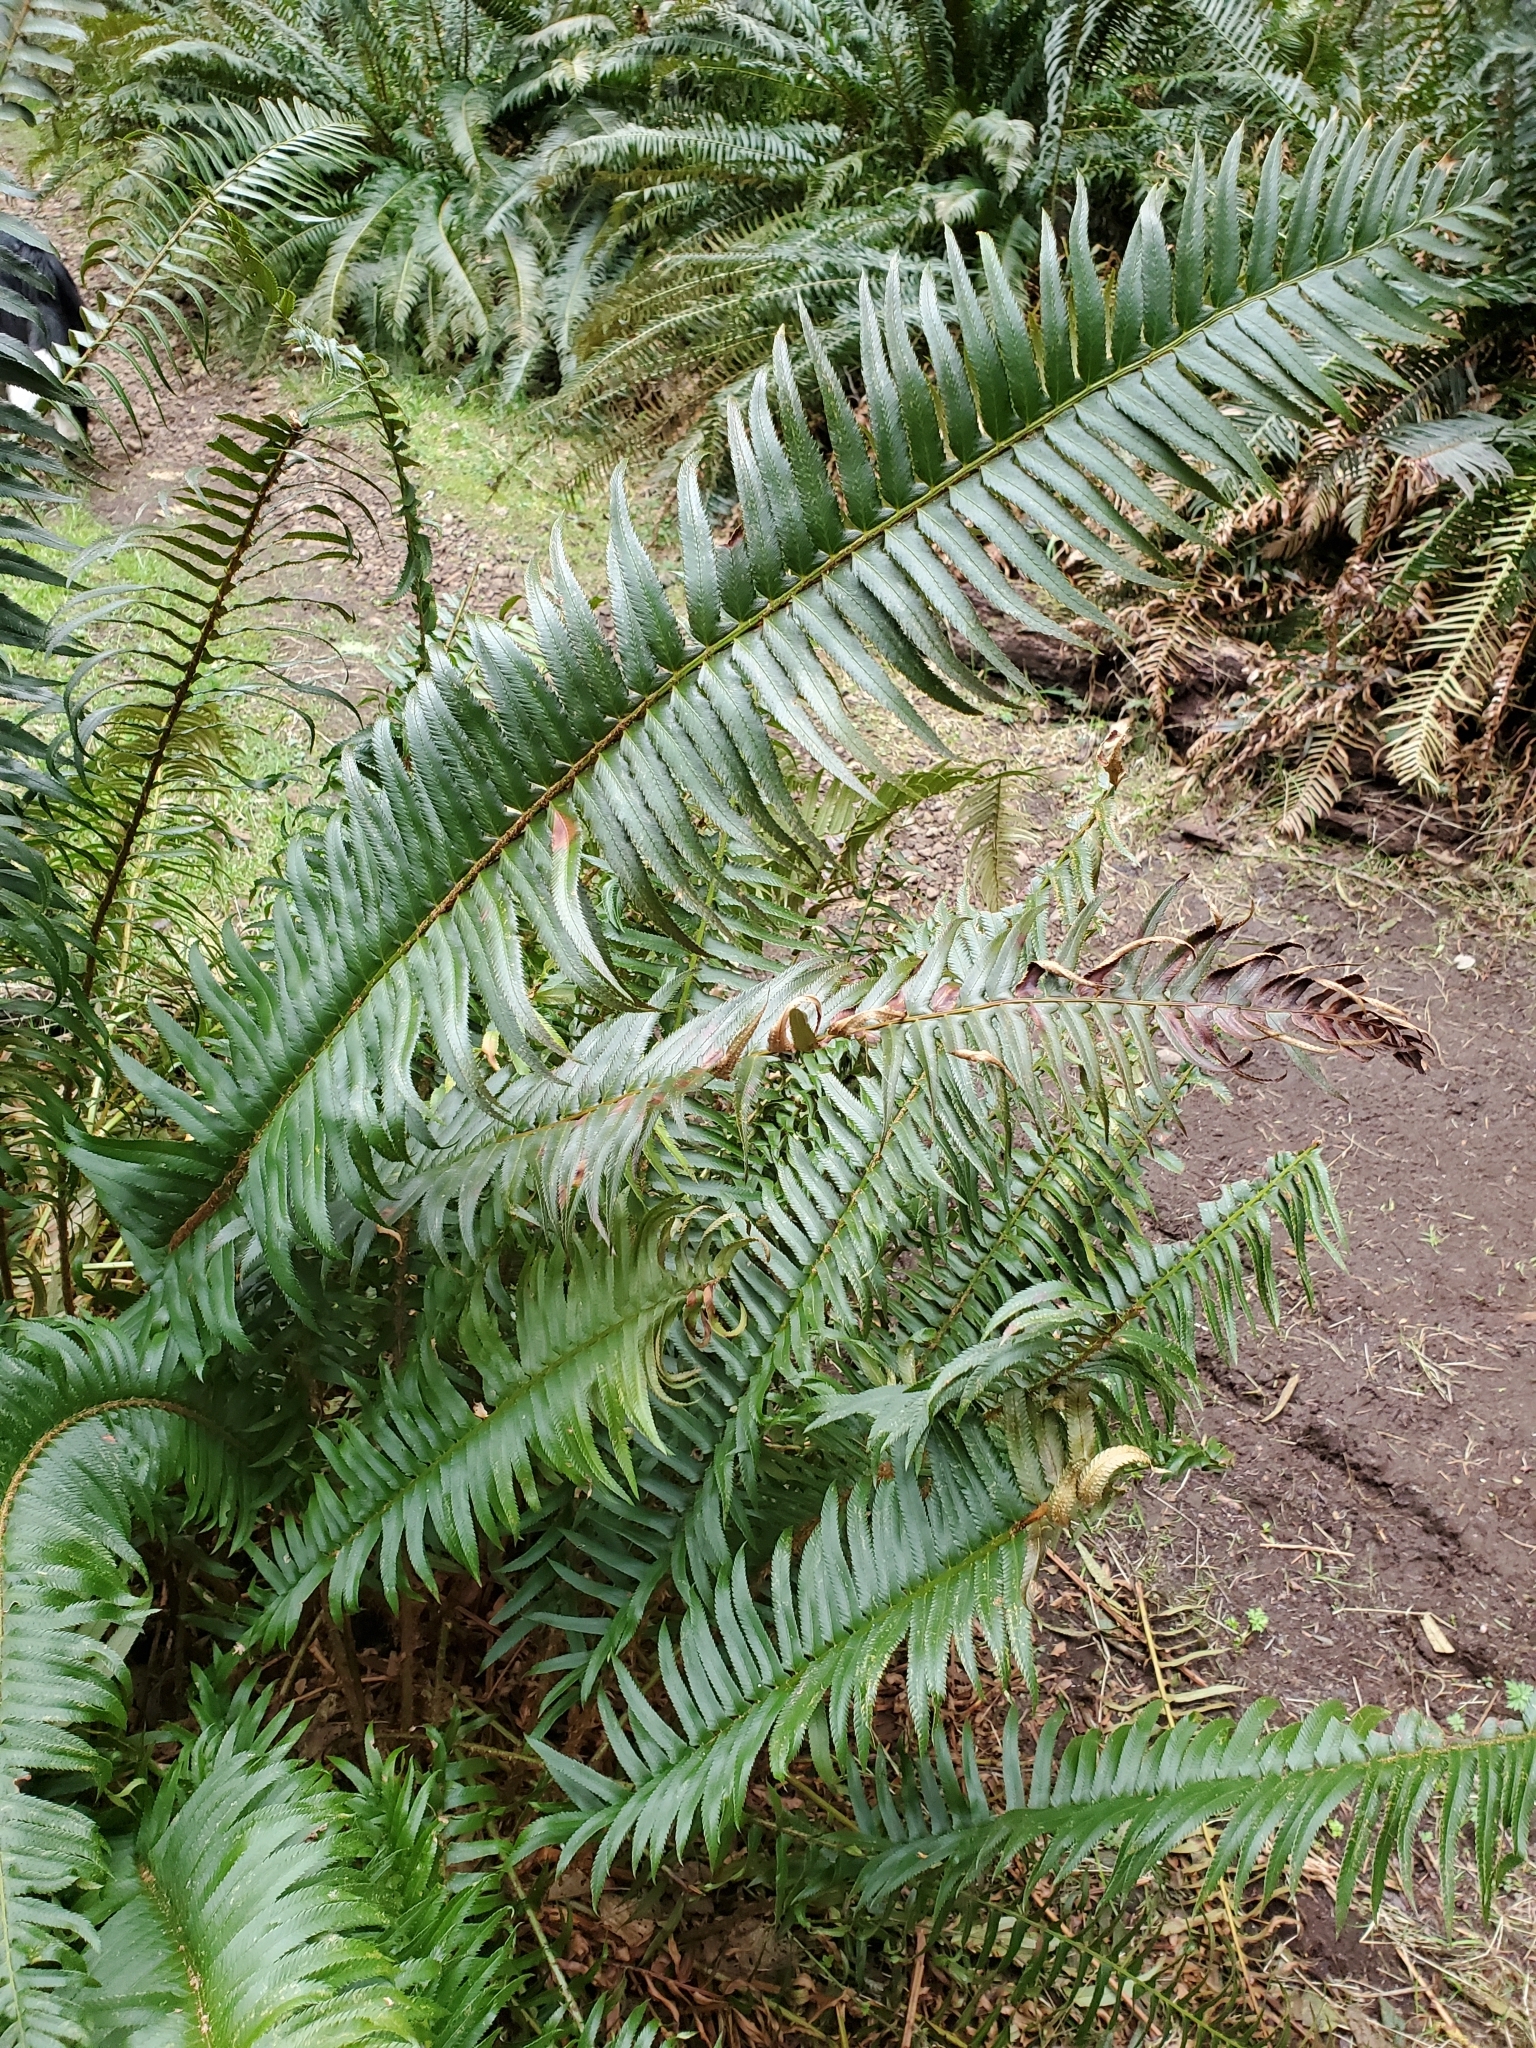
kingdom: Plantae
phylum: Tracheophyta
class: Polypodiopsida
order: Polypodiales
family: Dryopteridaceae
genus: Polystichum
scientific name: Polystichum munitum
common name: Western sword-fern
